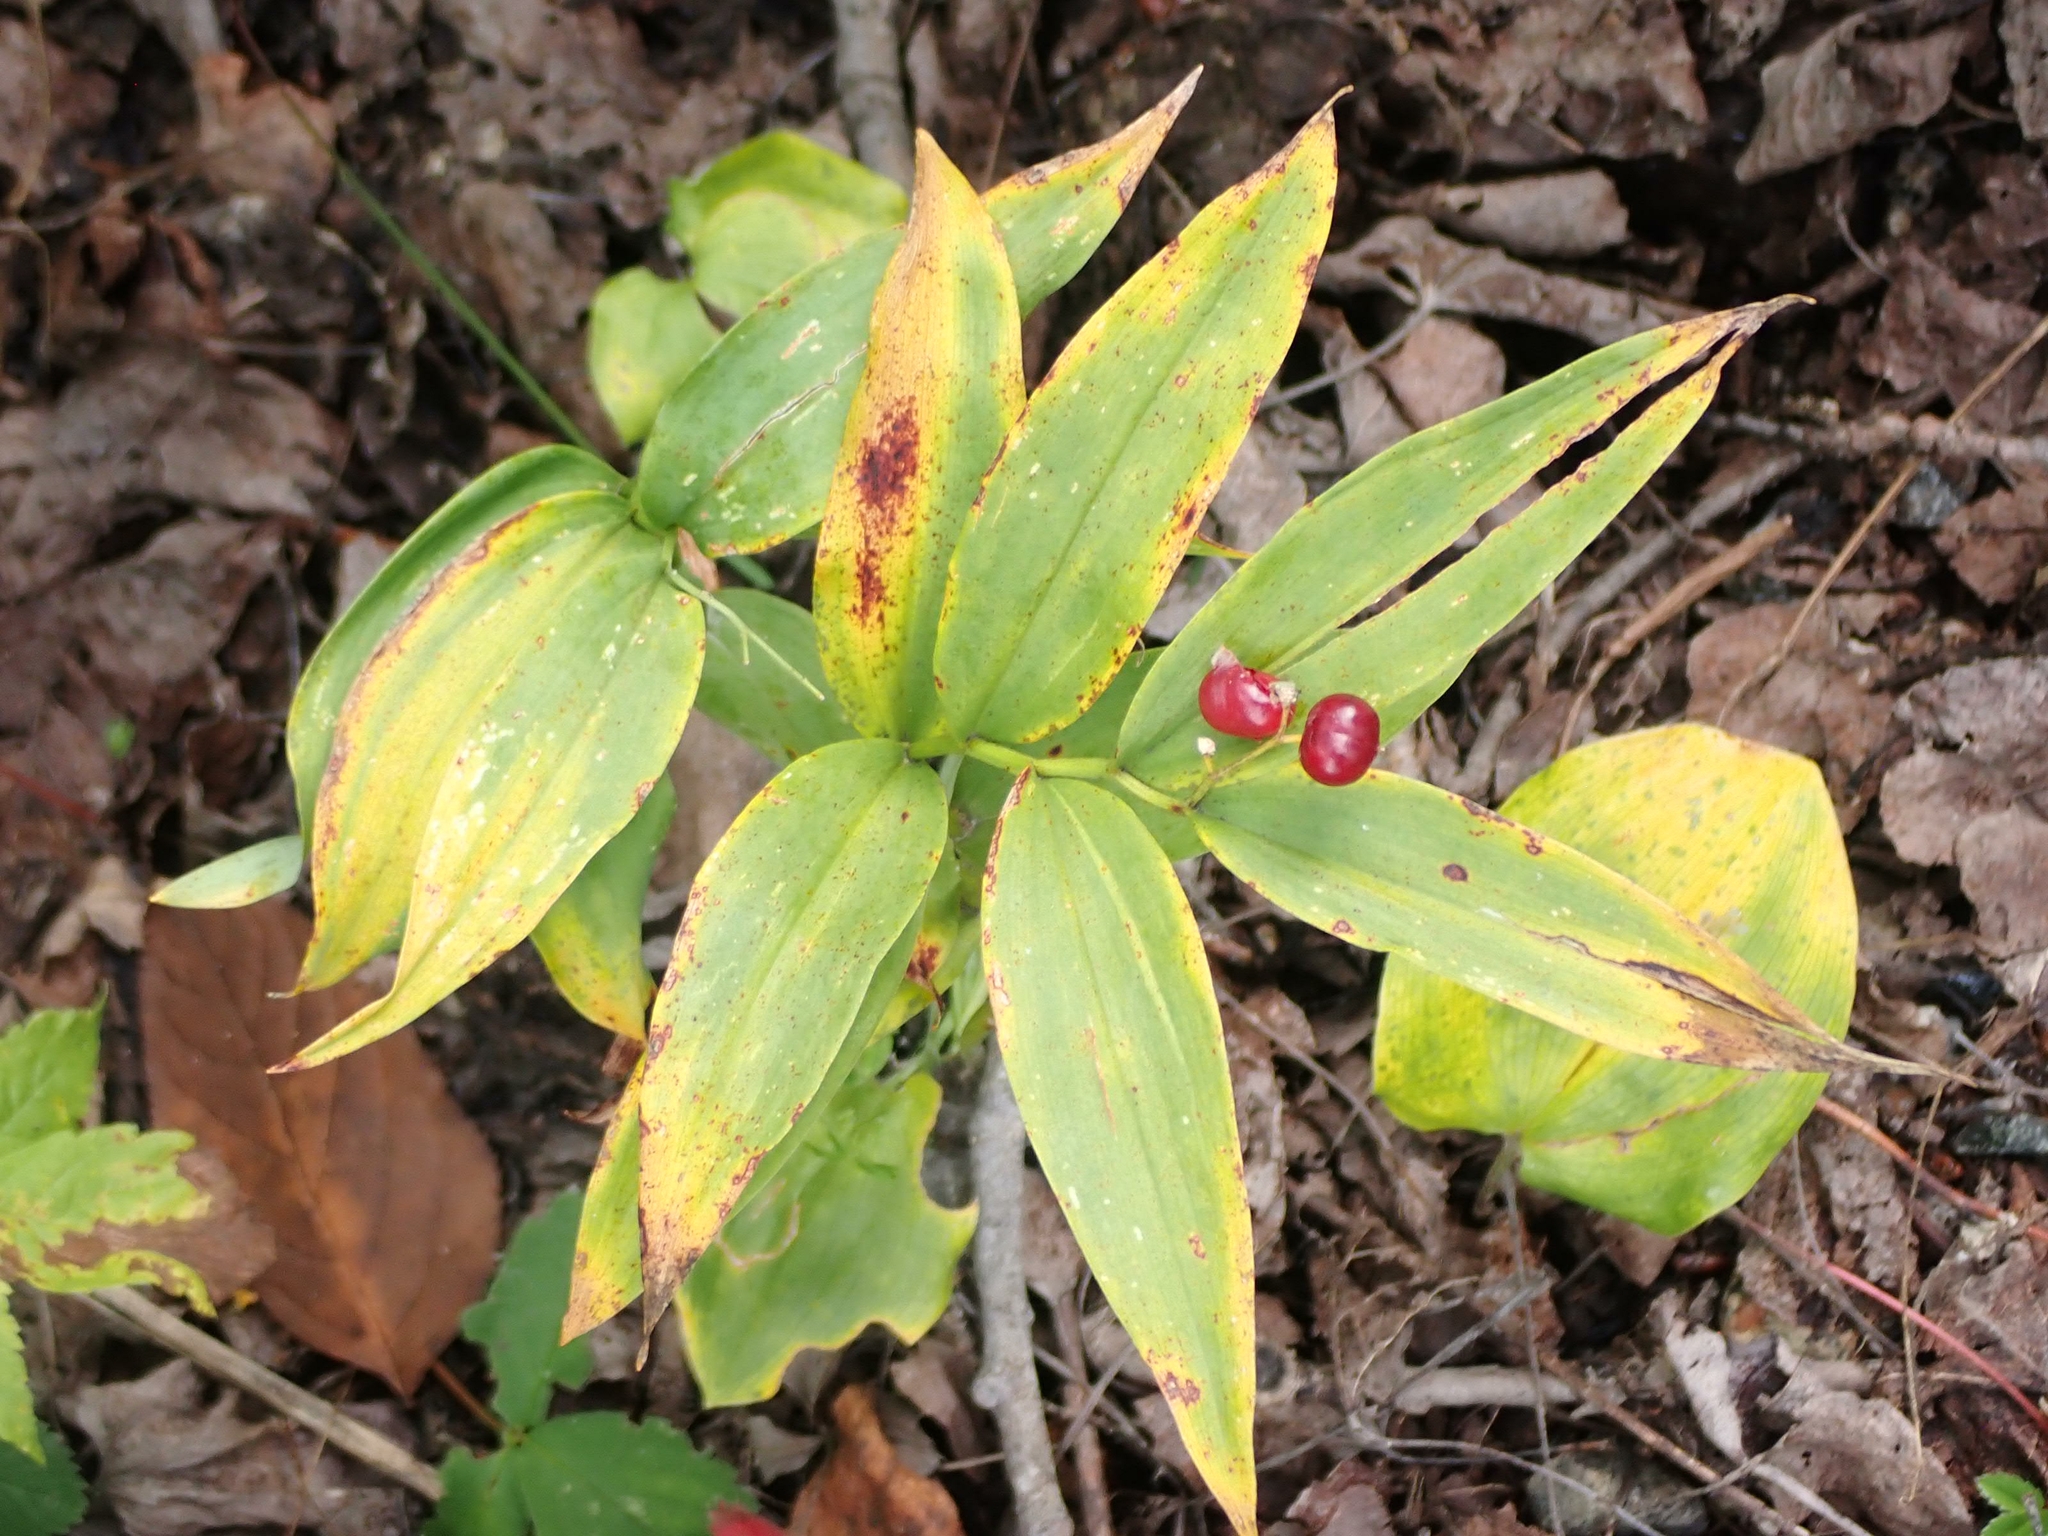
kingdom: Plantae
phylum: Tracheophyta
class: Liliopsida
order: Asparagales
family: Asparagaceae
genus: Maianthemum
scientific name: Maianthemum stellatum
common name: Little false solomon's seal
